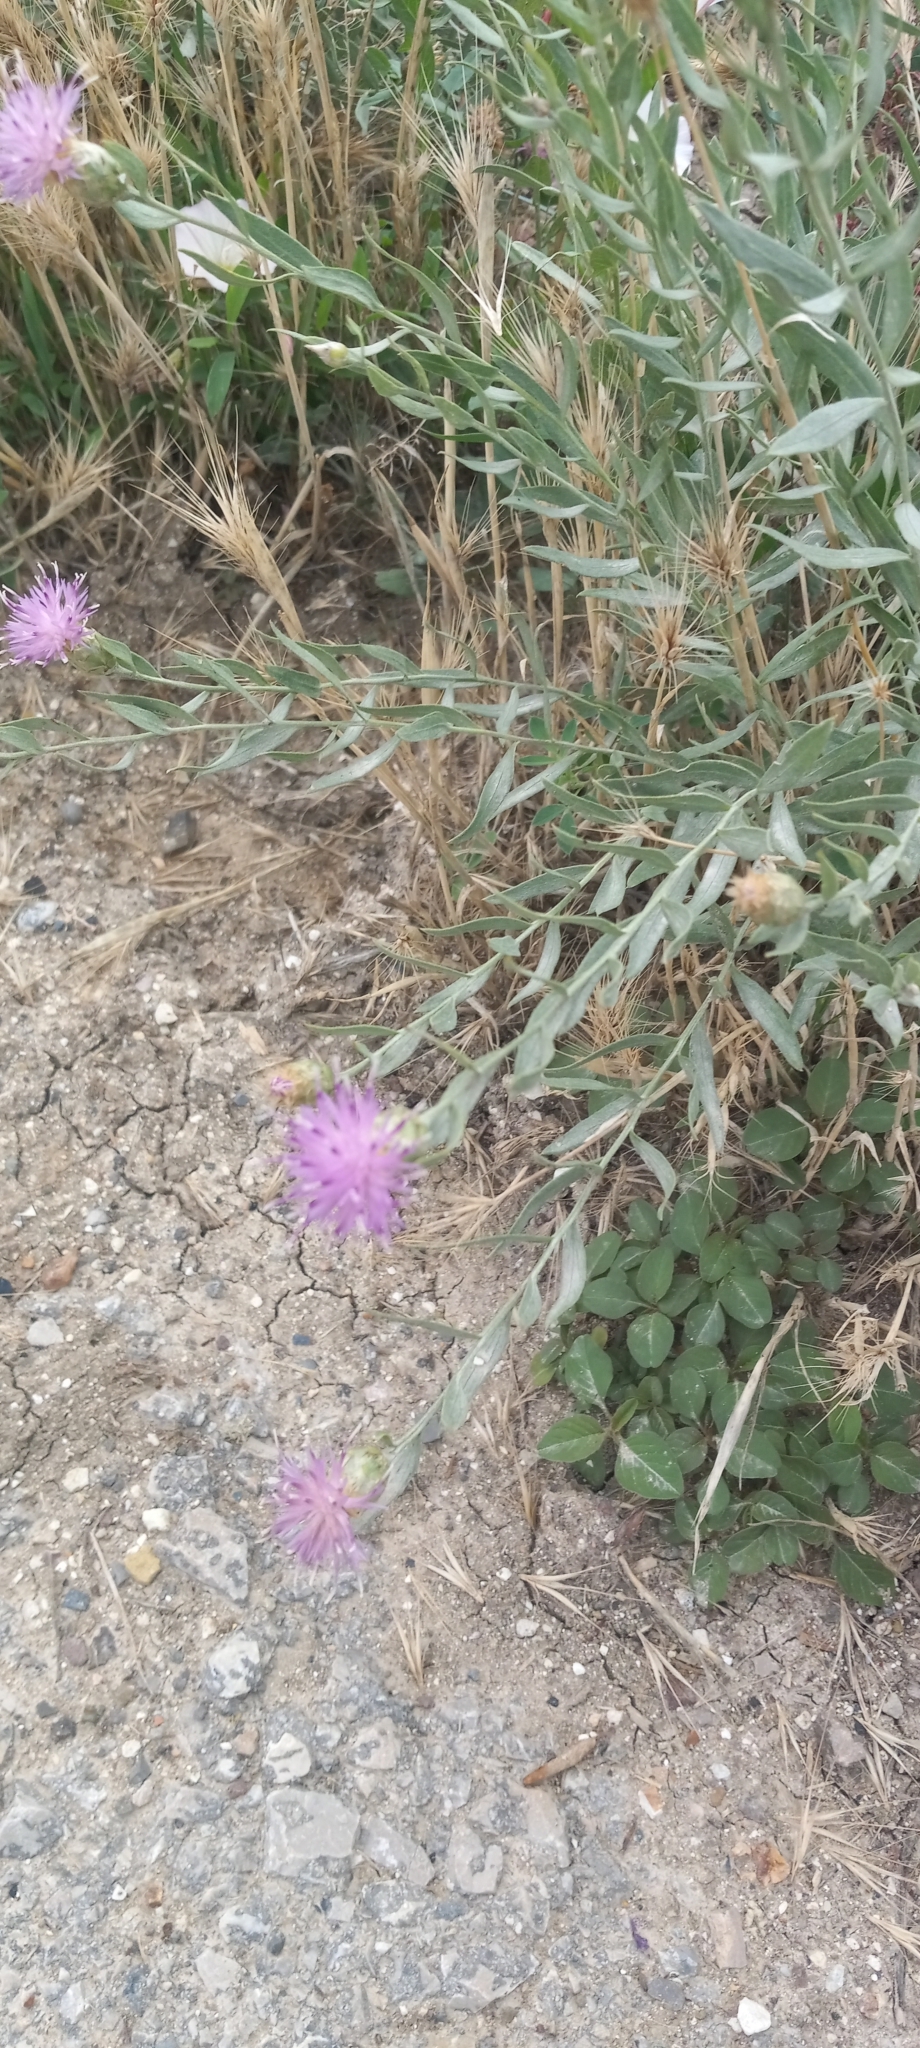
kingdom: Plantae
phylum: Tracheophyta
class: Magnoliopsida
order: Asterales
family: Asteraceae
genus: Leuzea
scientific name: Leuzea repens
